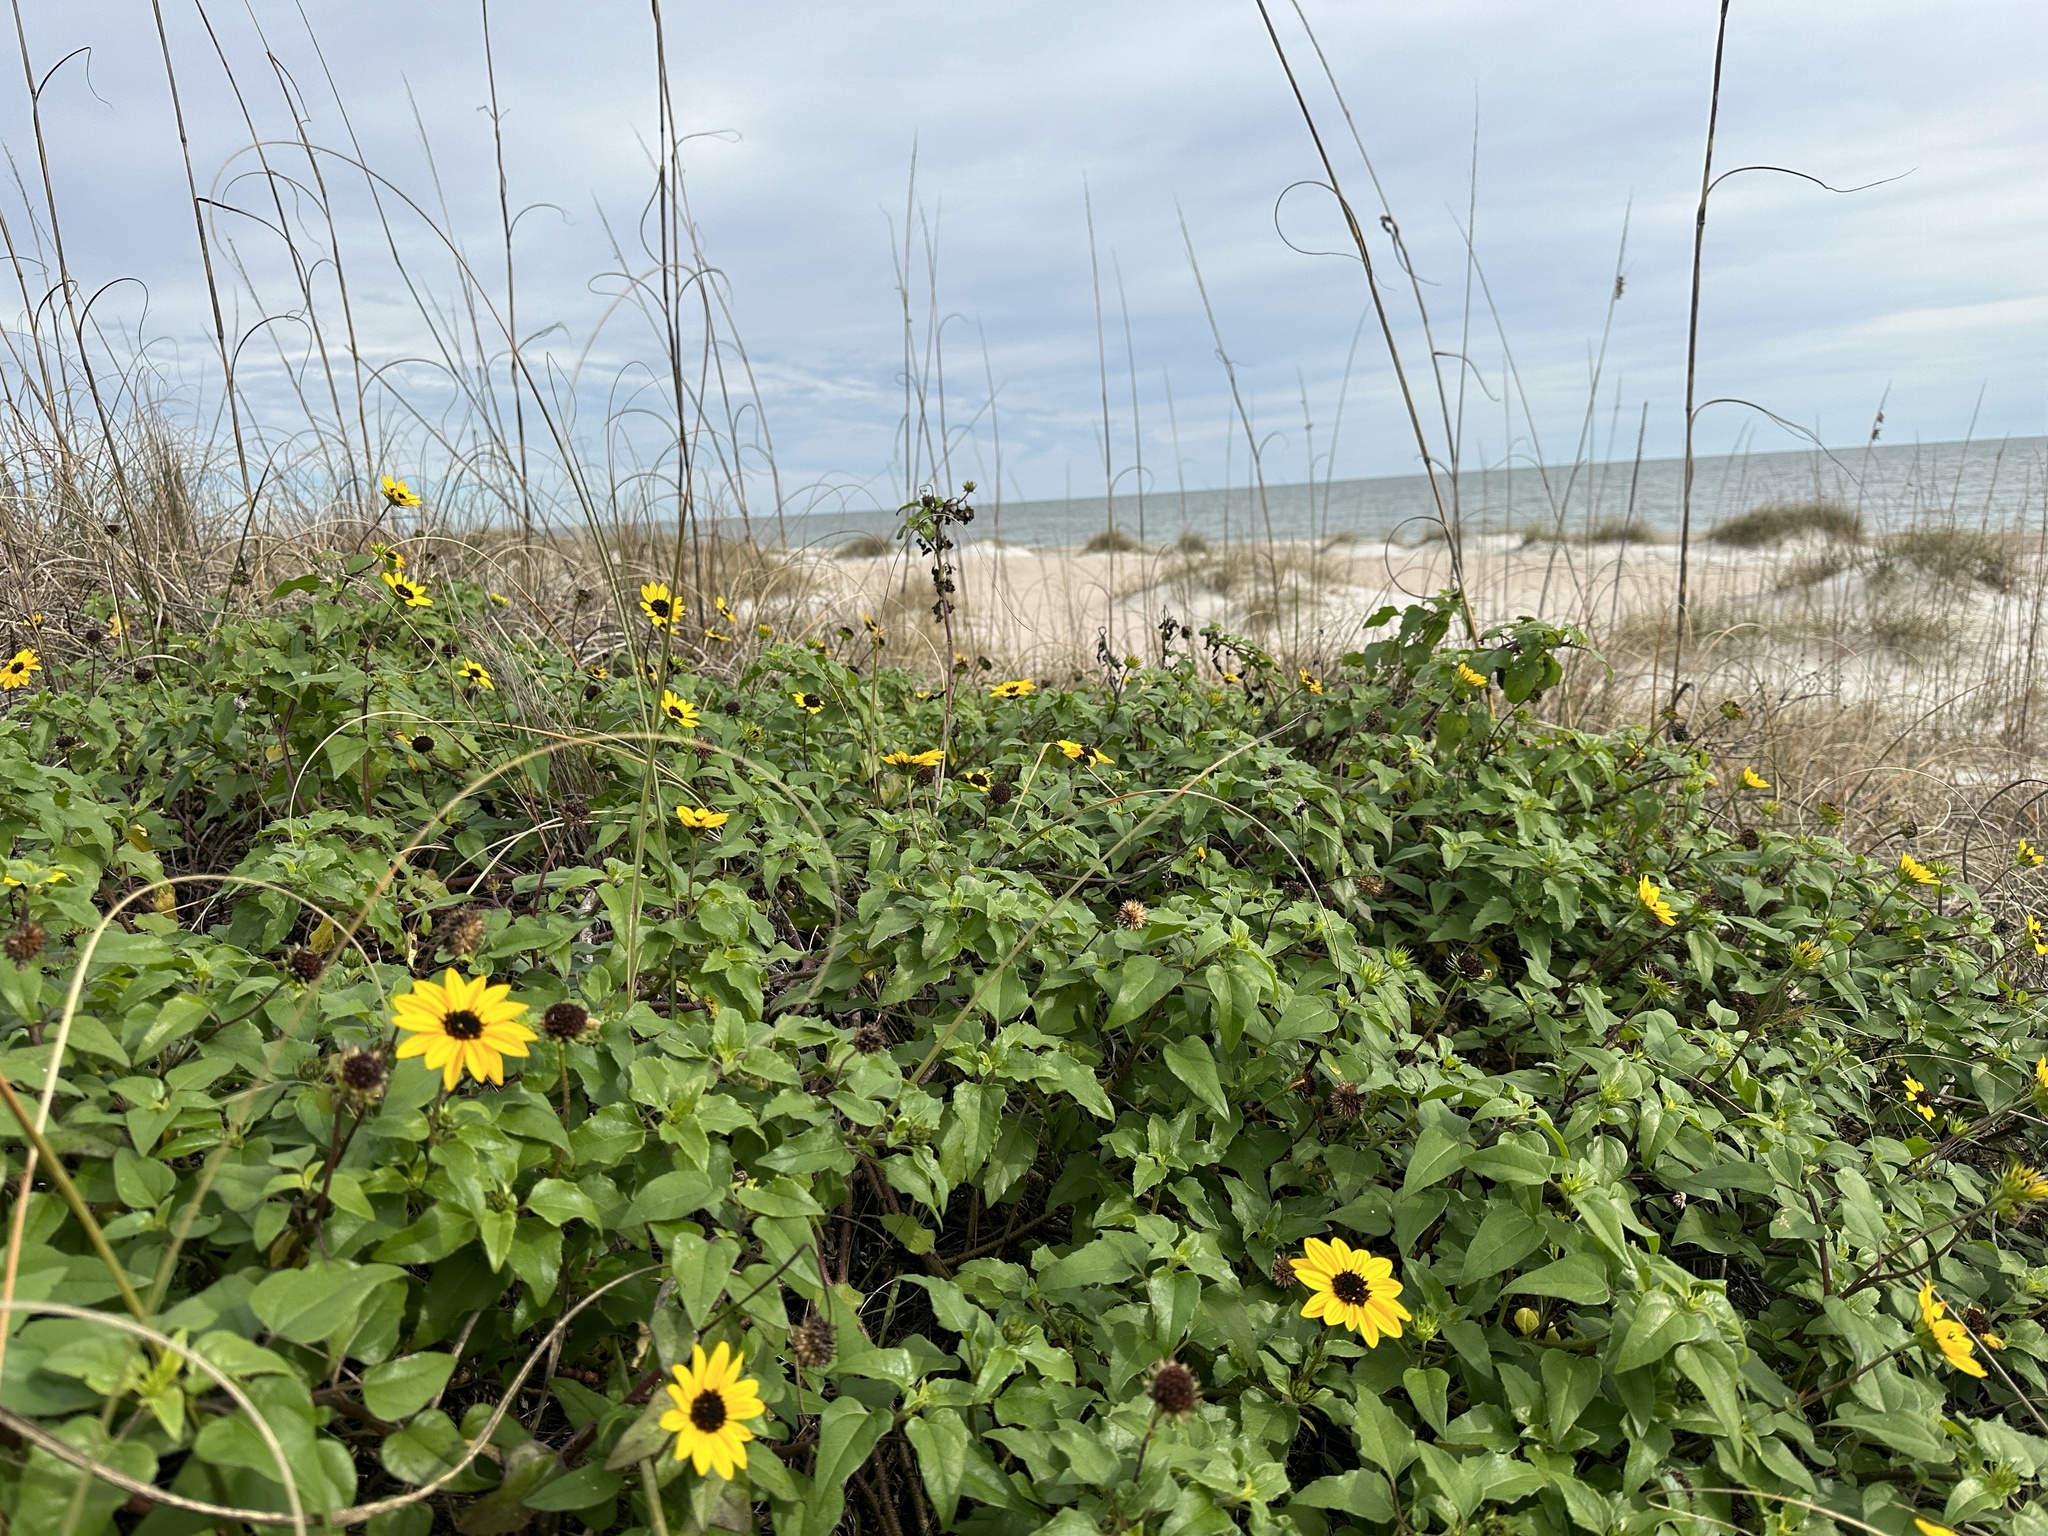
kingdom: Plantae
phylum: Tracheophyta
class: Magnoliopsida
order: Asterales
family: Asteraceae
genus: Helianthus
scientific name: Helianthus debilis
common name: Weak sunflower
